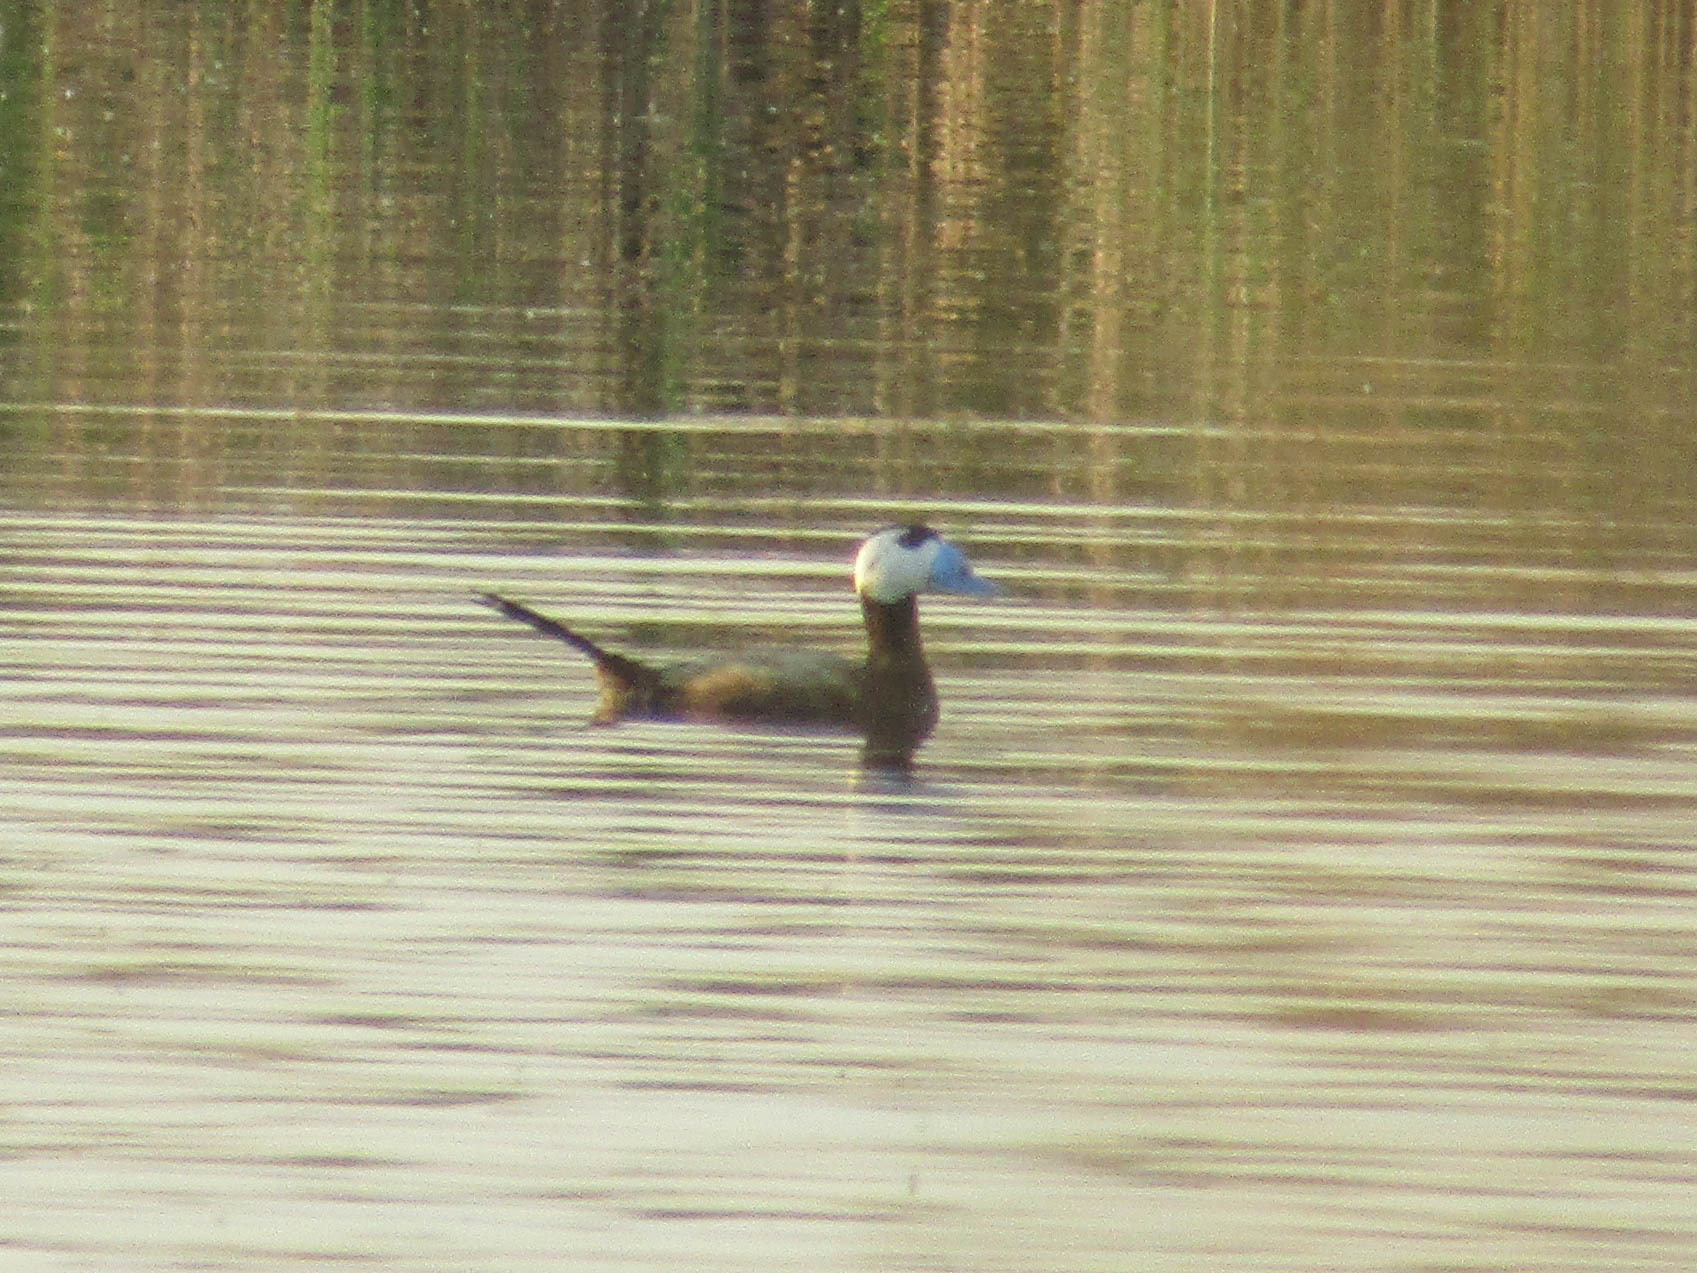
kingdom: Animalia
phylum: Chordata
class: Aves
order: Anseriformes
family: Anatidae
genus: Oxyura
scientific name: Oxyura leucocephala
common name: White-headed duck
